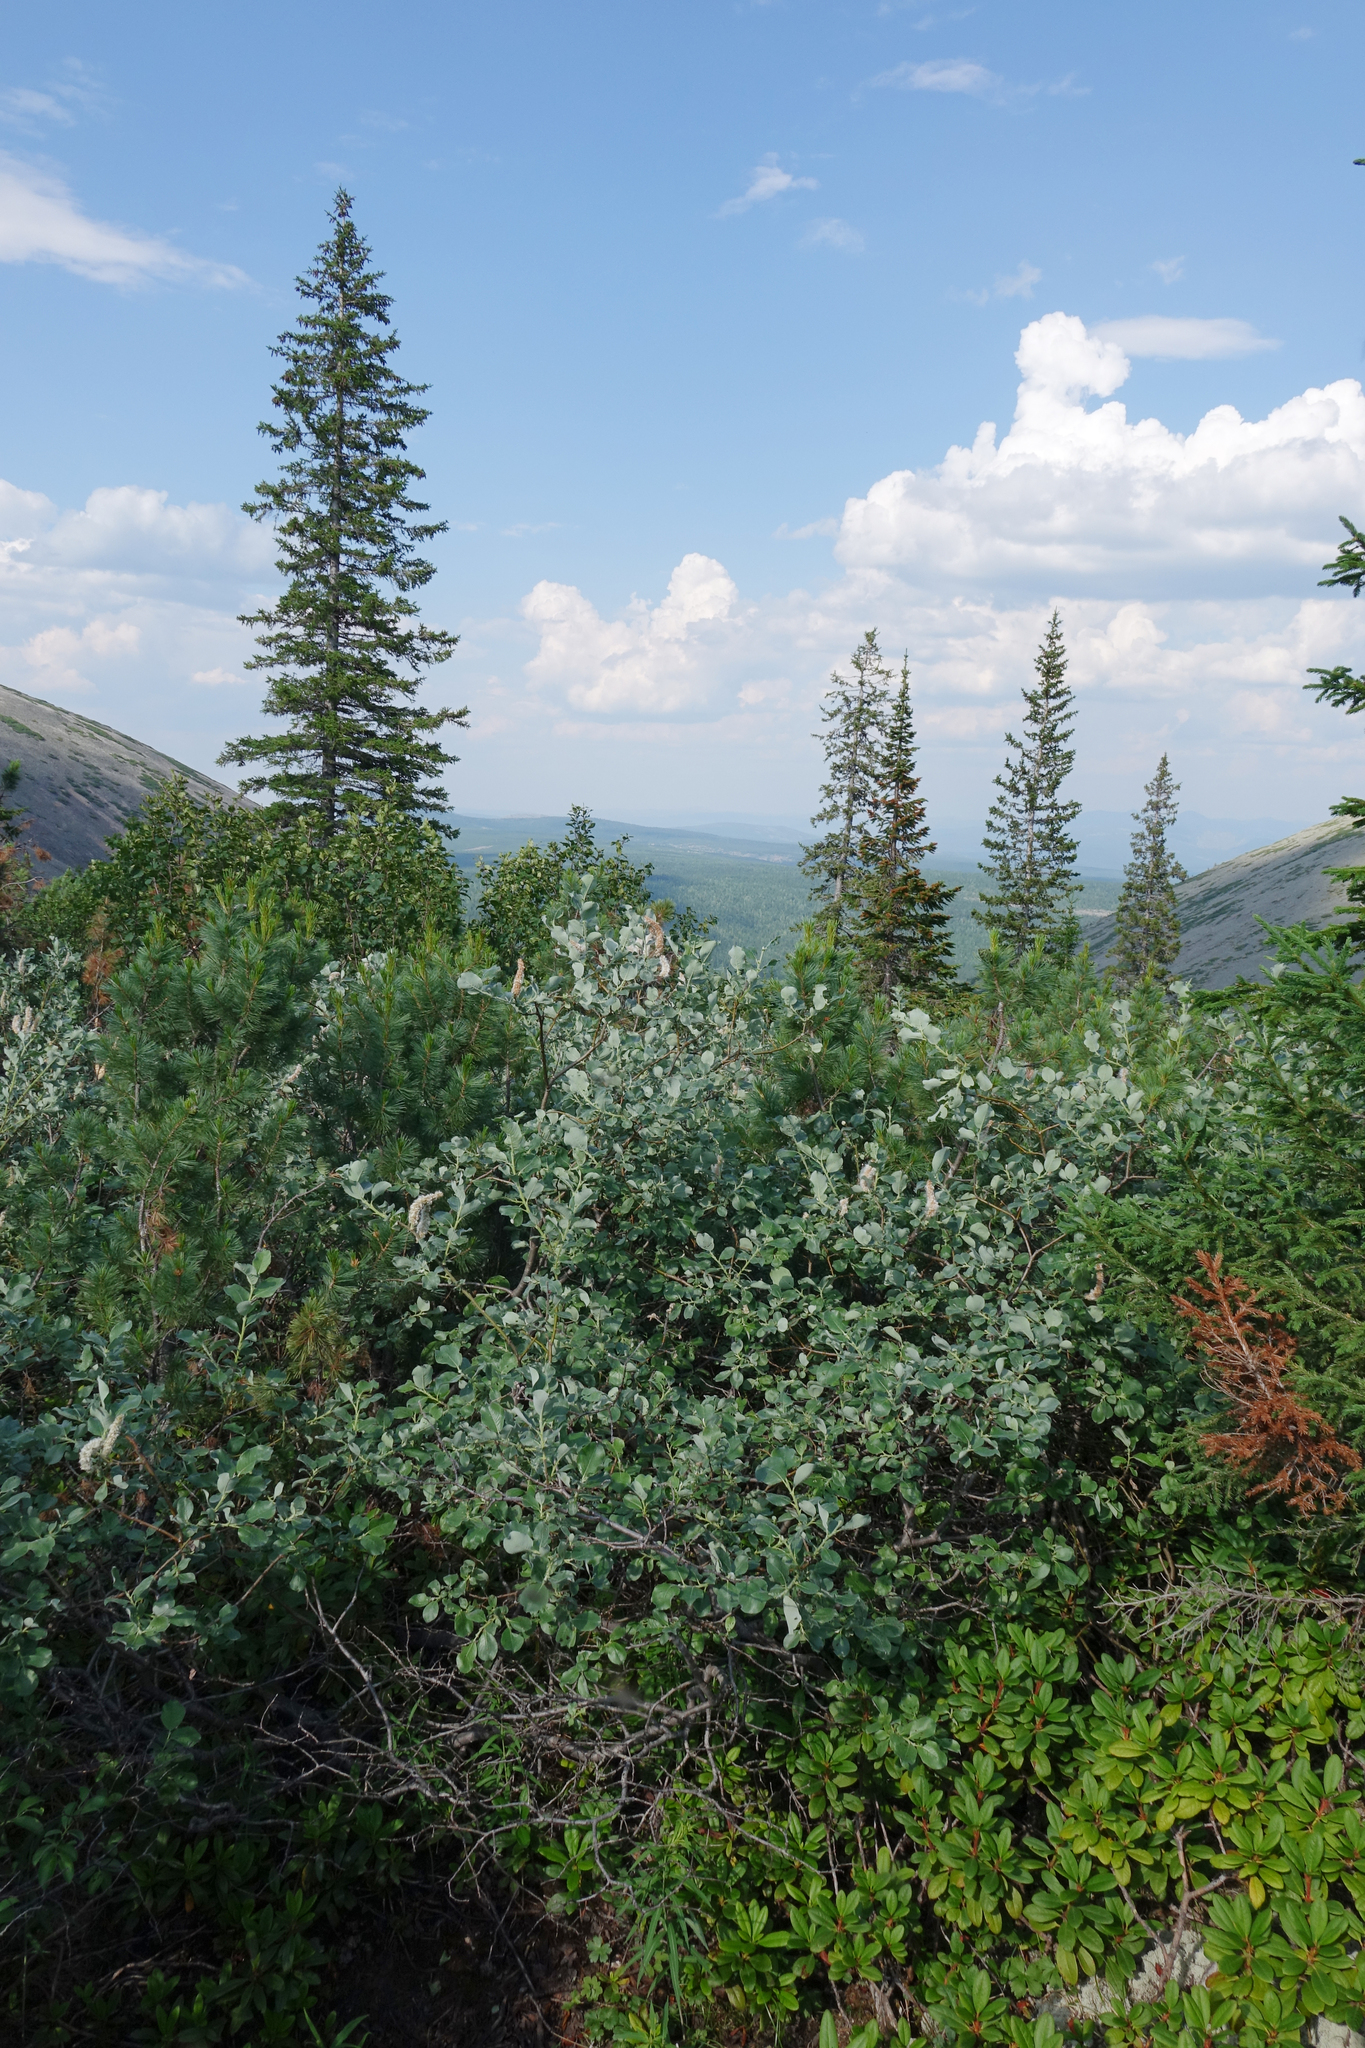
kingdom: Plantae
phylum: Tracheophyta
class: Pinopsida
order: Pinales
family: Pinaceae
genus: Picea
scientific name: Picea obovata
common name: Siberian spruce
